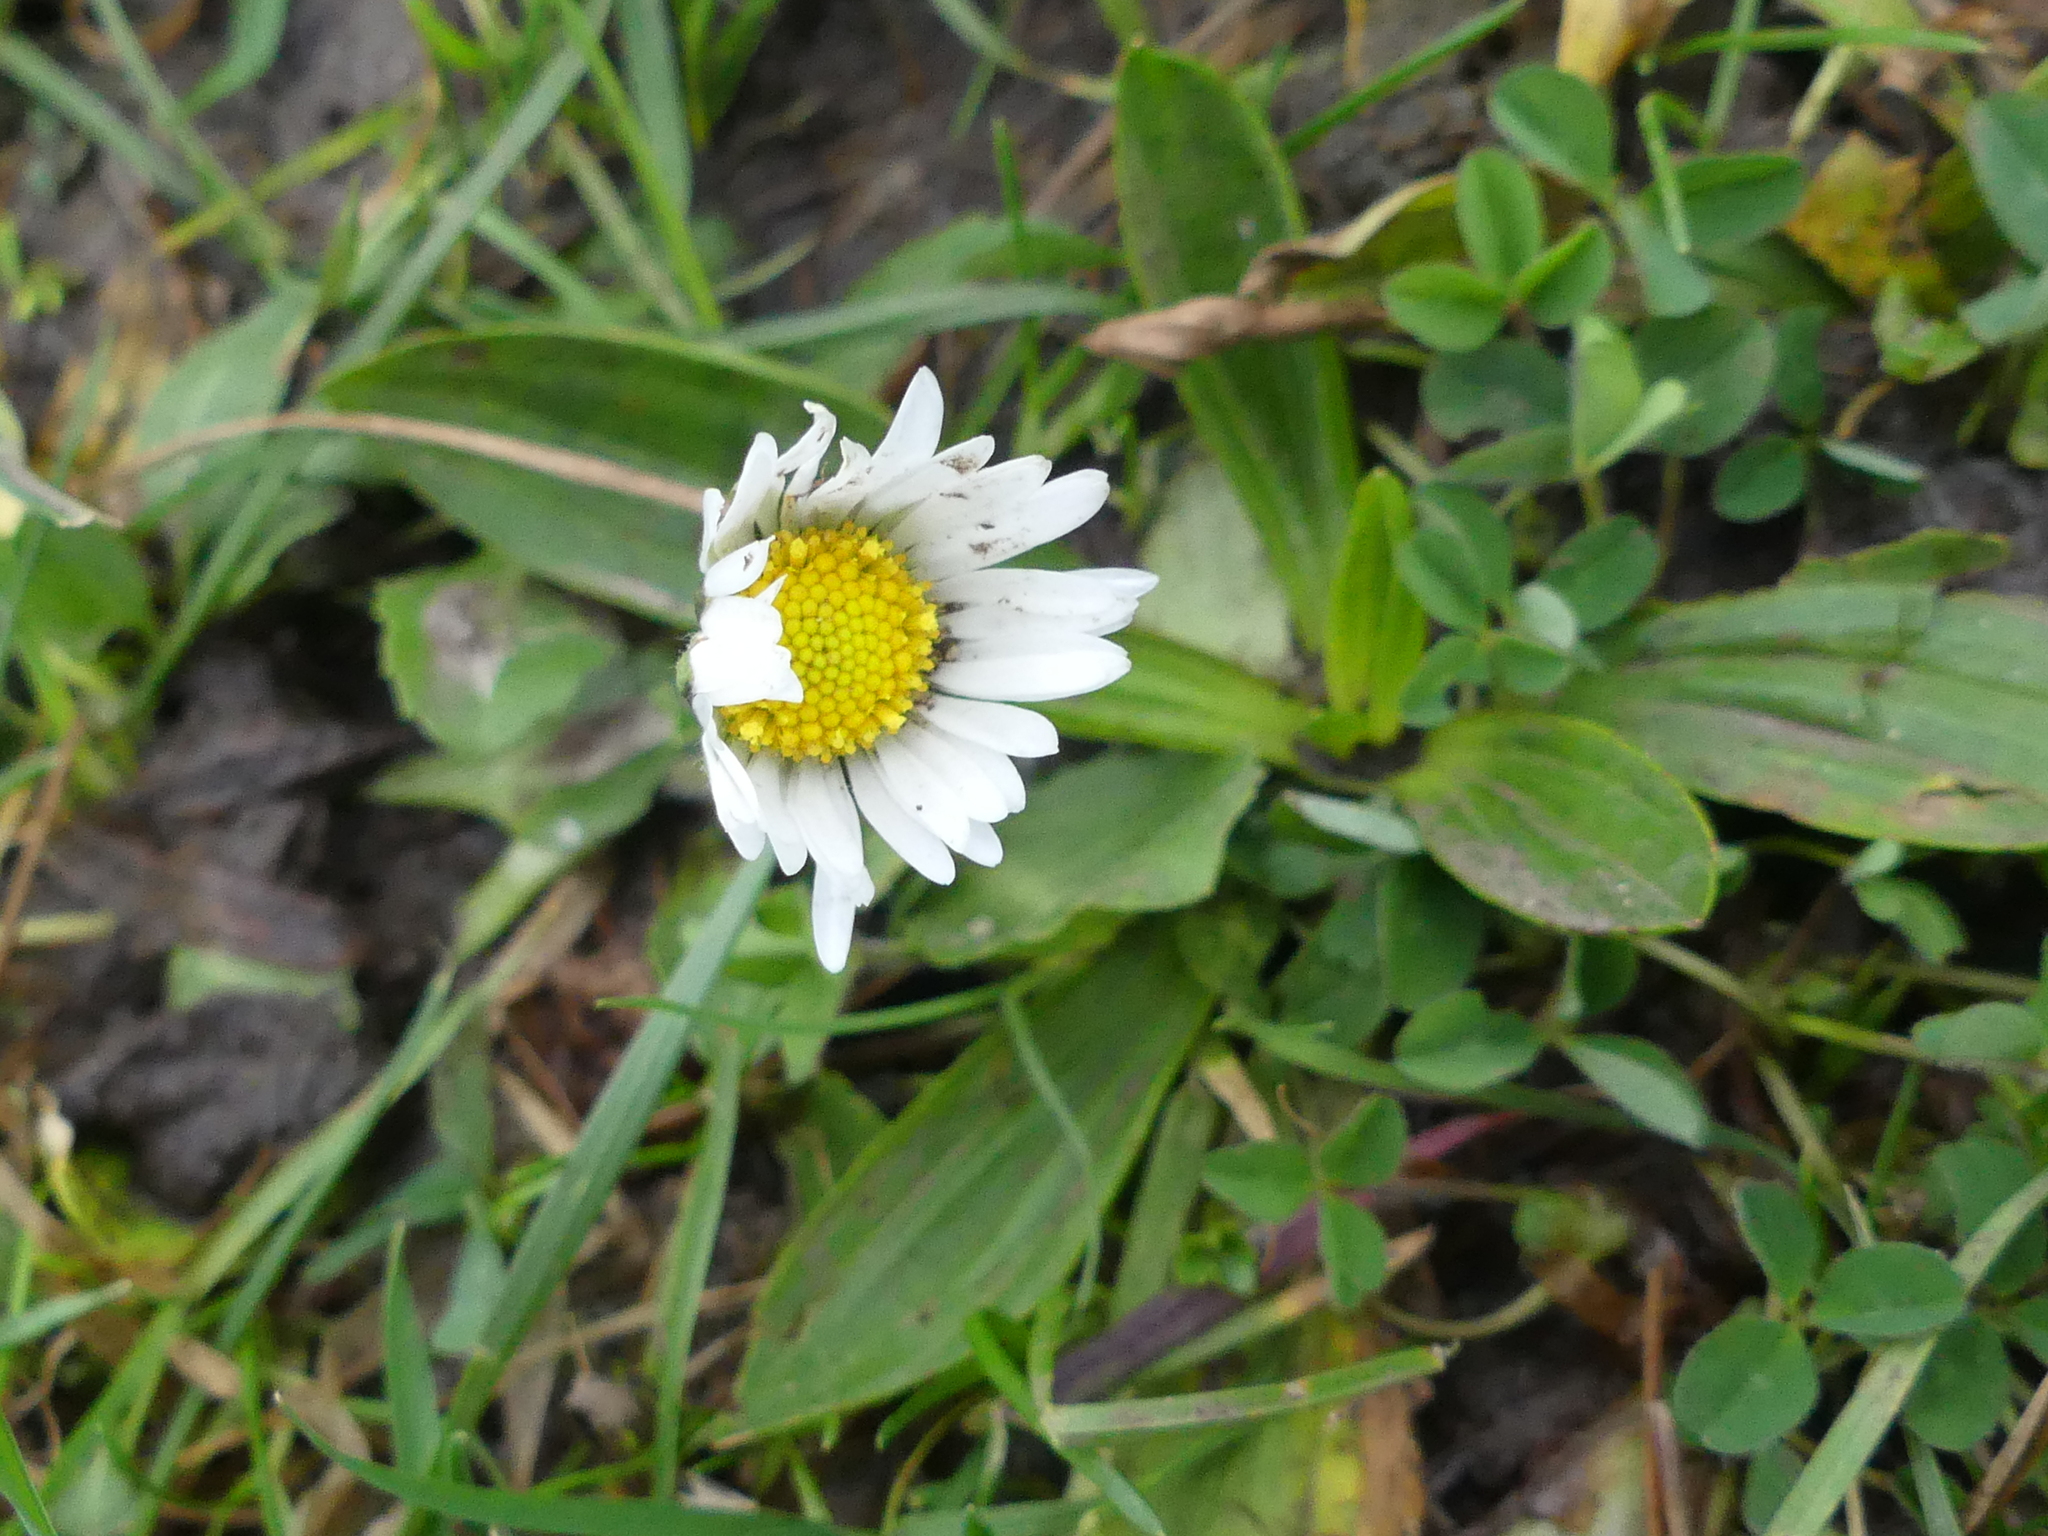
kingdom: Plantae
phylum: Tracheophyta
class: Magnoliopsida
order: Asterales
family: Asteraceae
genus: Bellis
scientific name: Bellis perennis
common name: Lawndaisy
